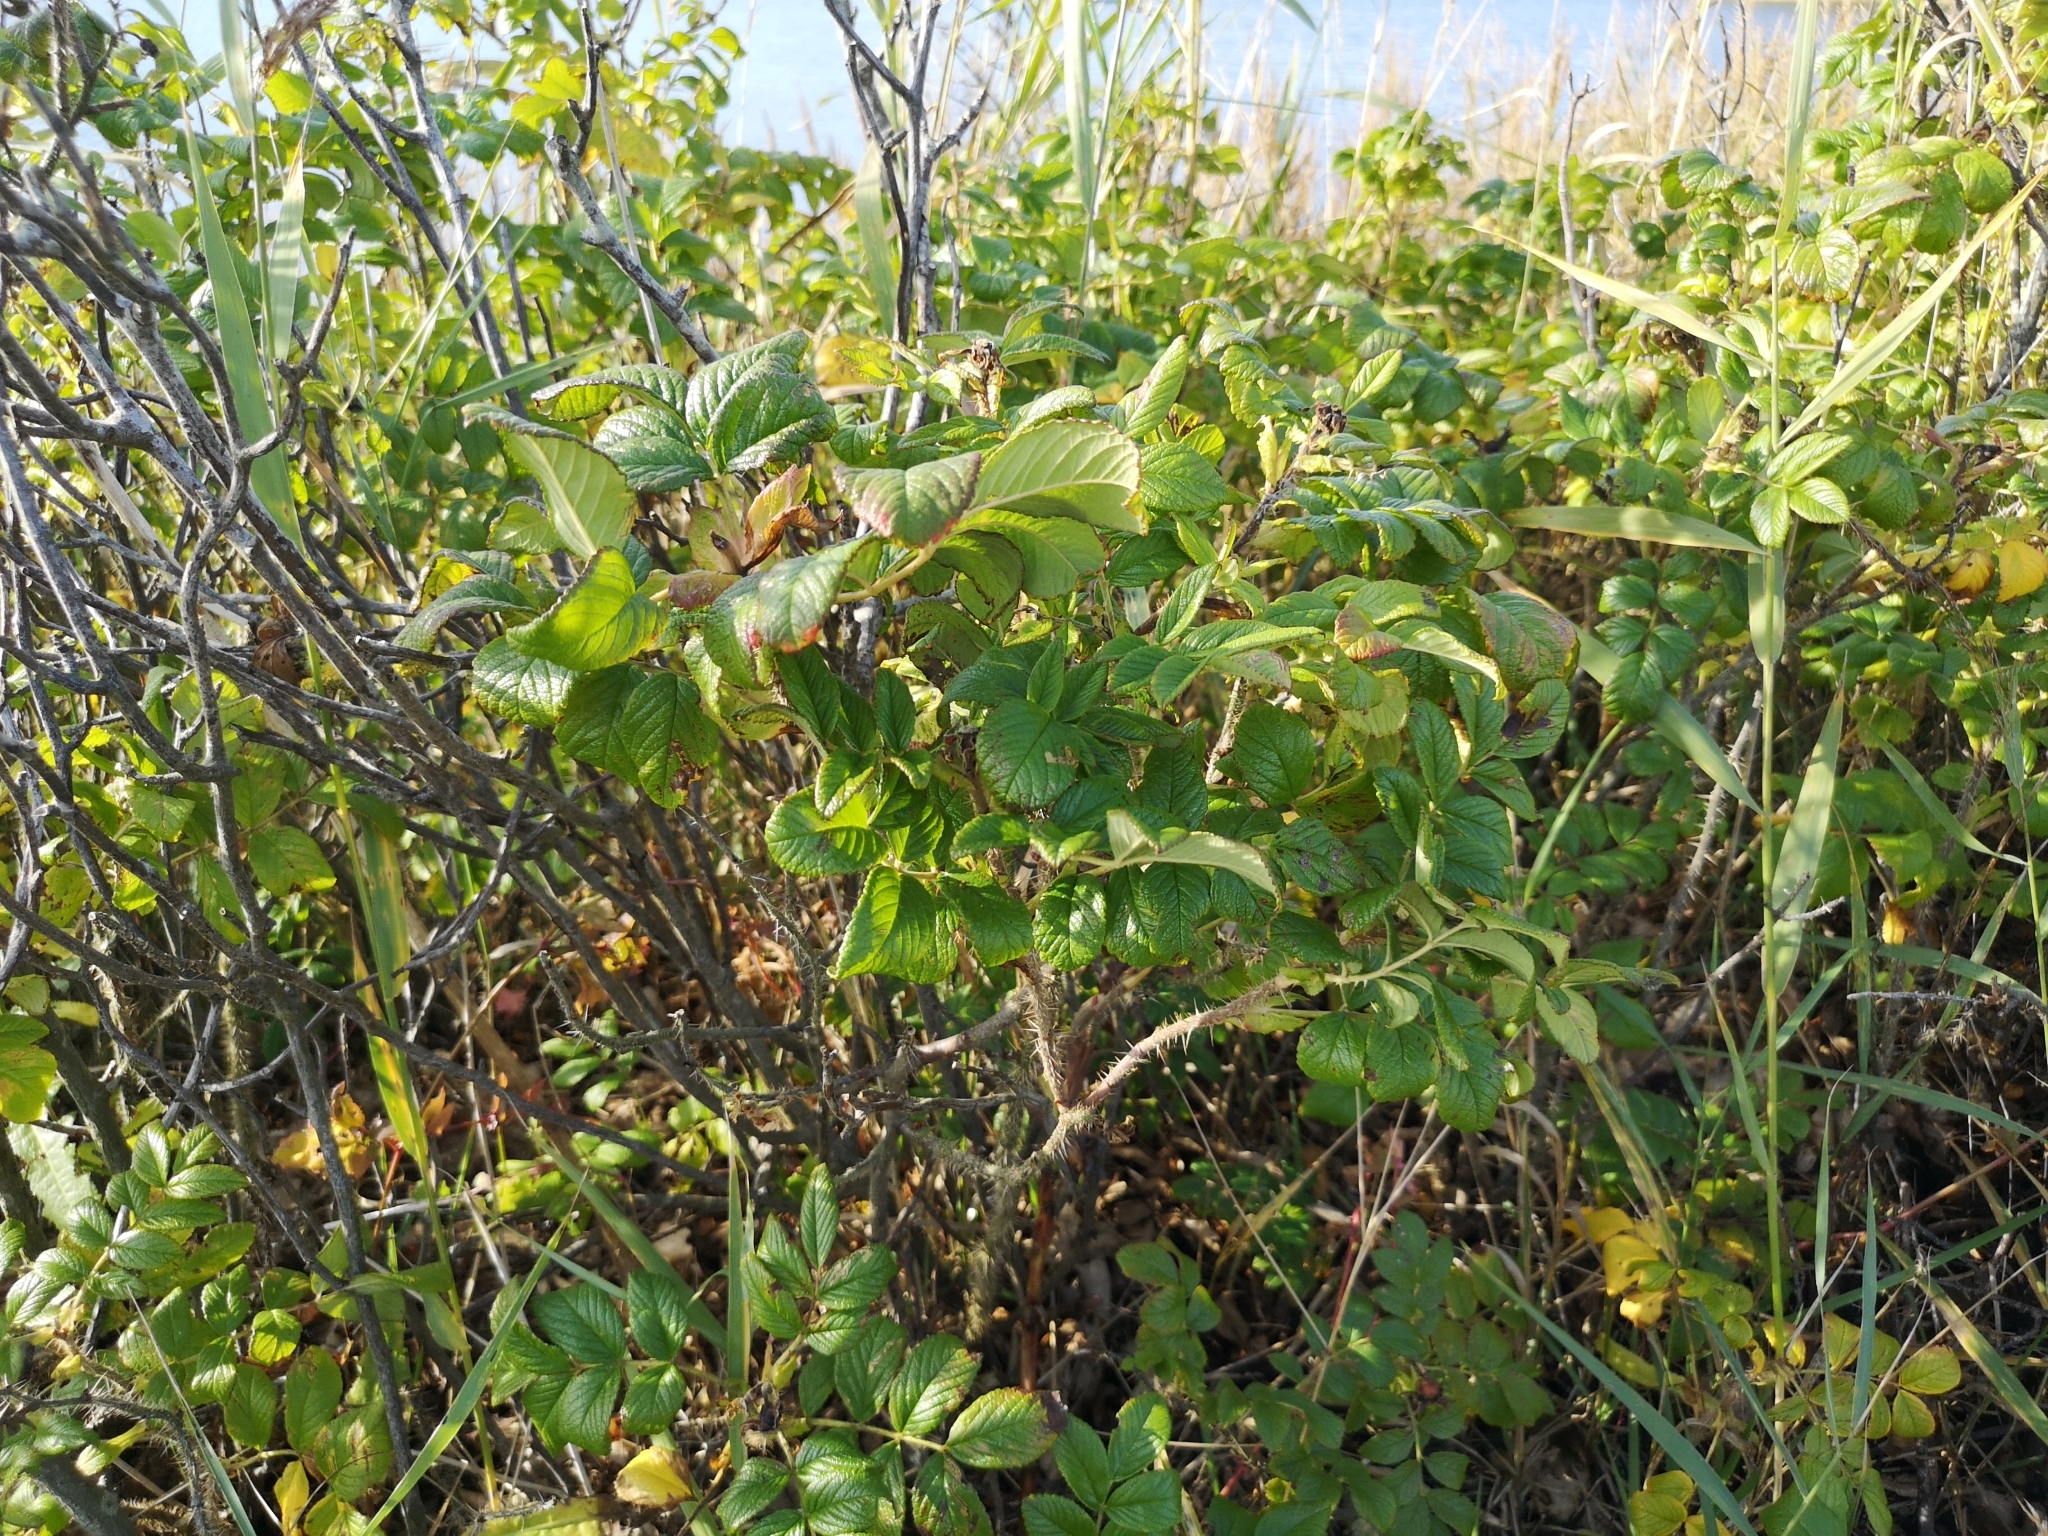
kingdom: Plantae
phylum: Tracheophyta
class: Magnoliopsida
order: Rosales
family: Rosaceae
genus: Rosa
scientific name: Rosa rugosa
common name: Japanese rose
